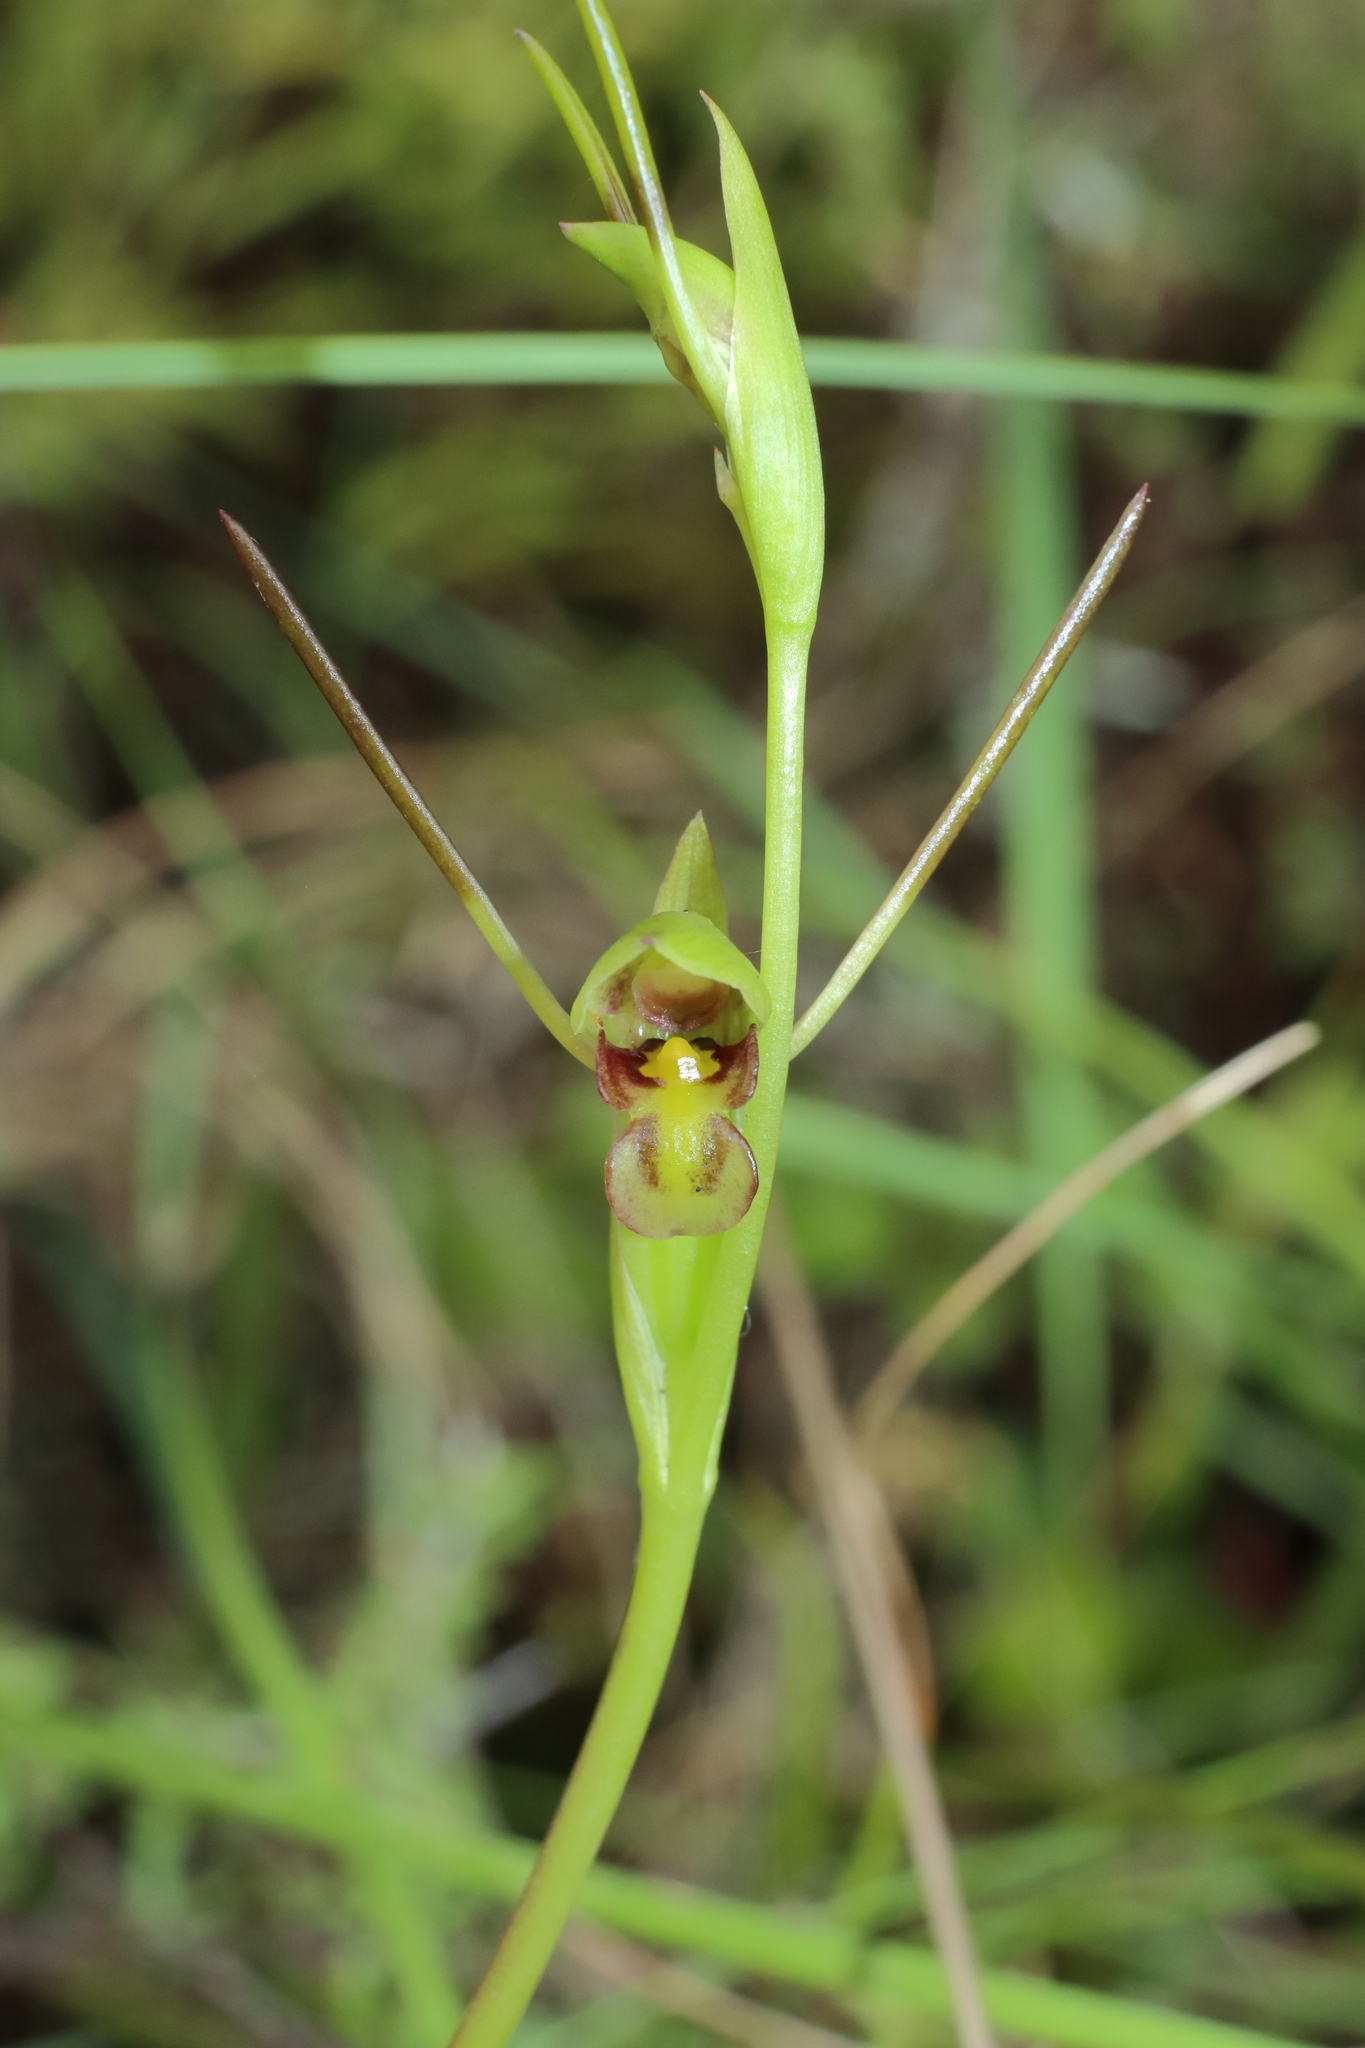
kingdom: Plantae
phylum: Tracheophyta
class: Liliopsida
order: Asparagales
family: Orchidaceae
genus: Orthoceras
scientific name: Orthoceras novae-zeelandiae
